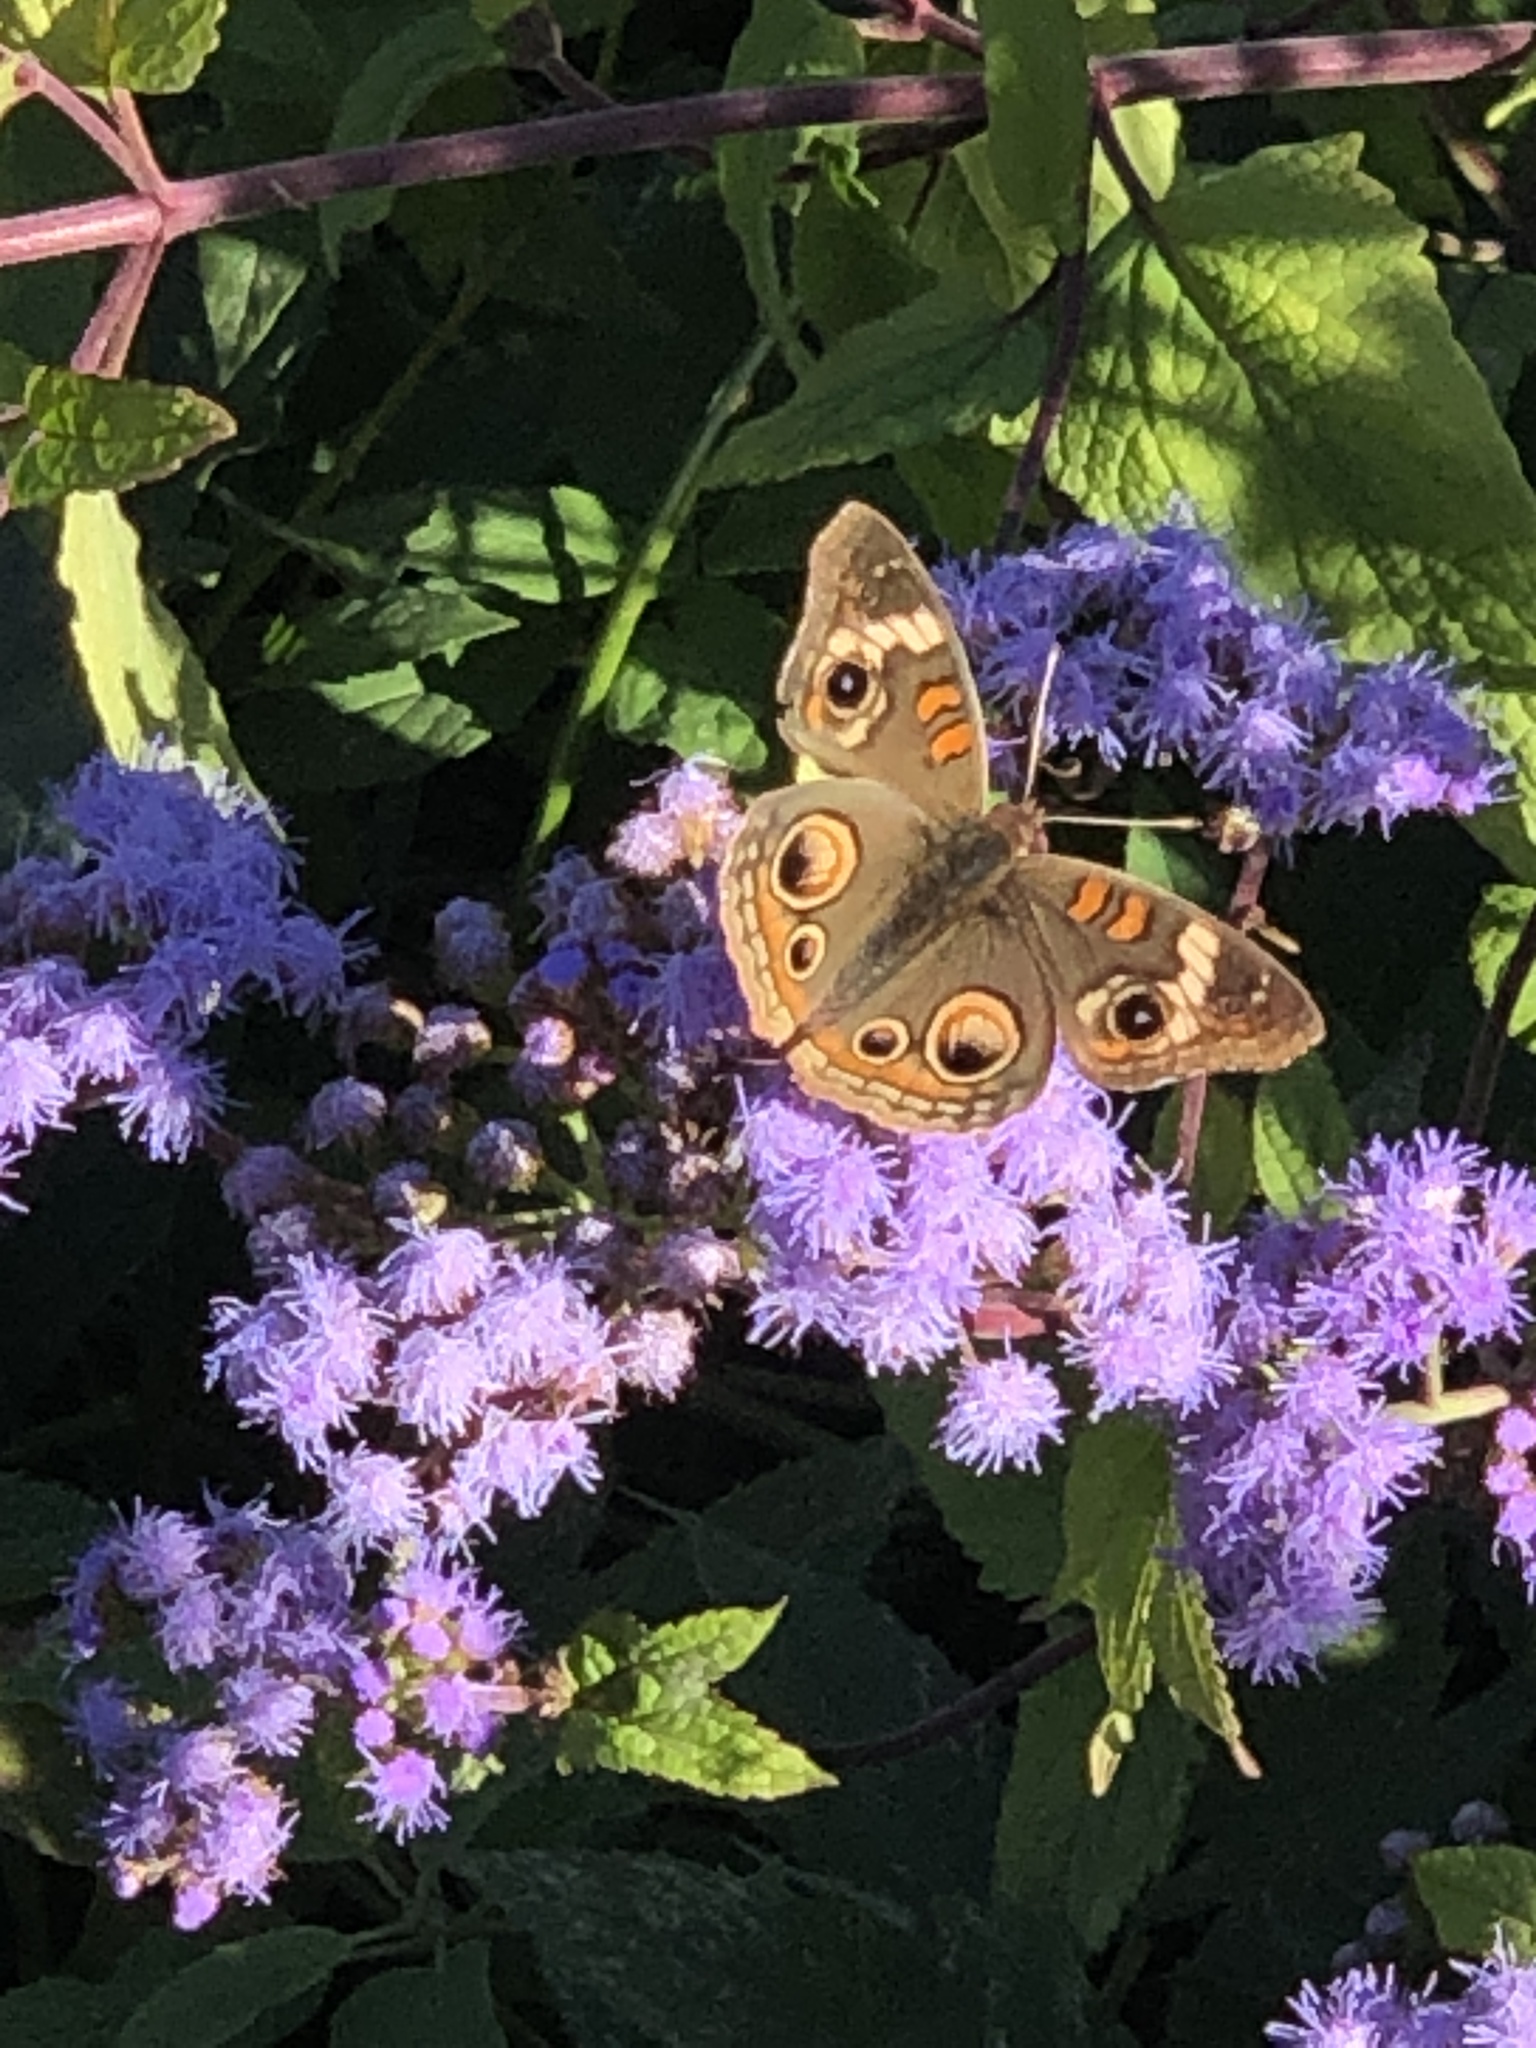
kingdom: Animalia
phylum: Arthropoda
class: Insecta
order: Lepidoptera
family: Nymphalidae
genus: Junonia
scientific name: Junonia coenia
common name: Common buckeye
